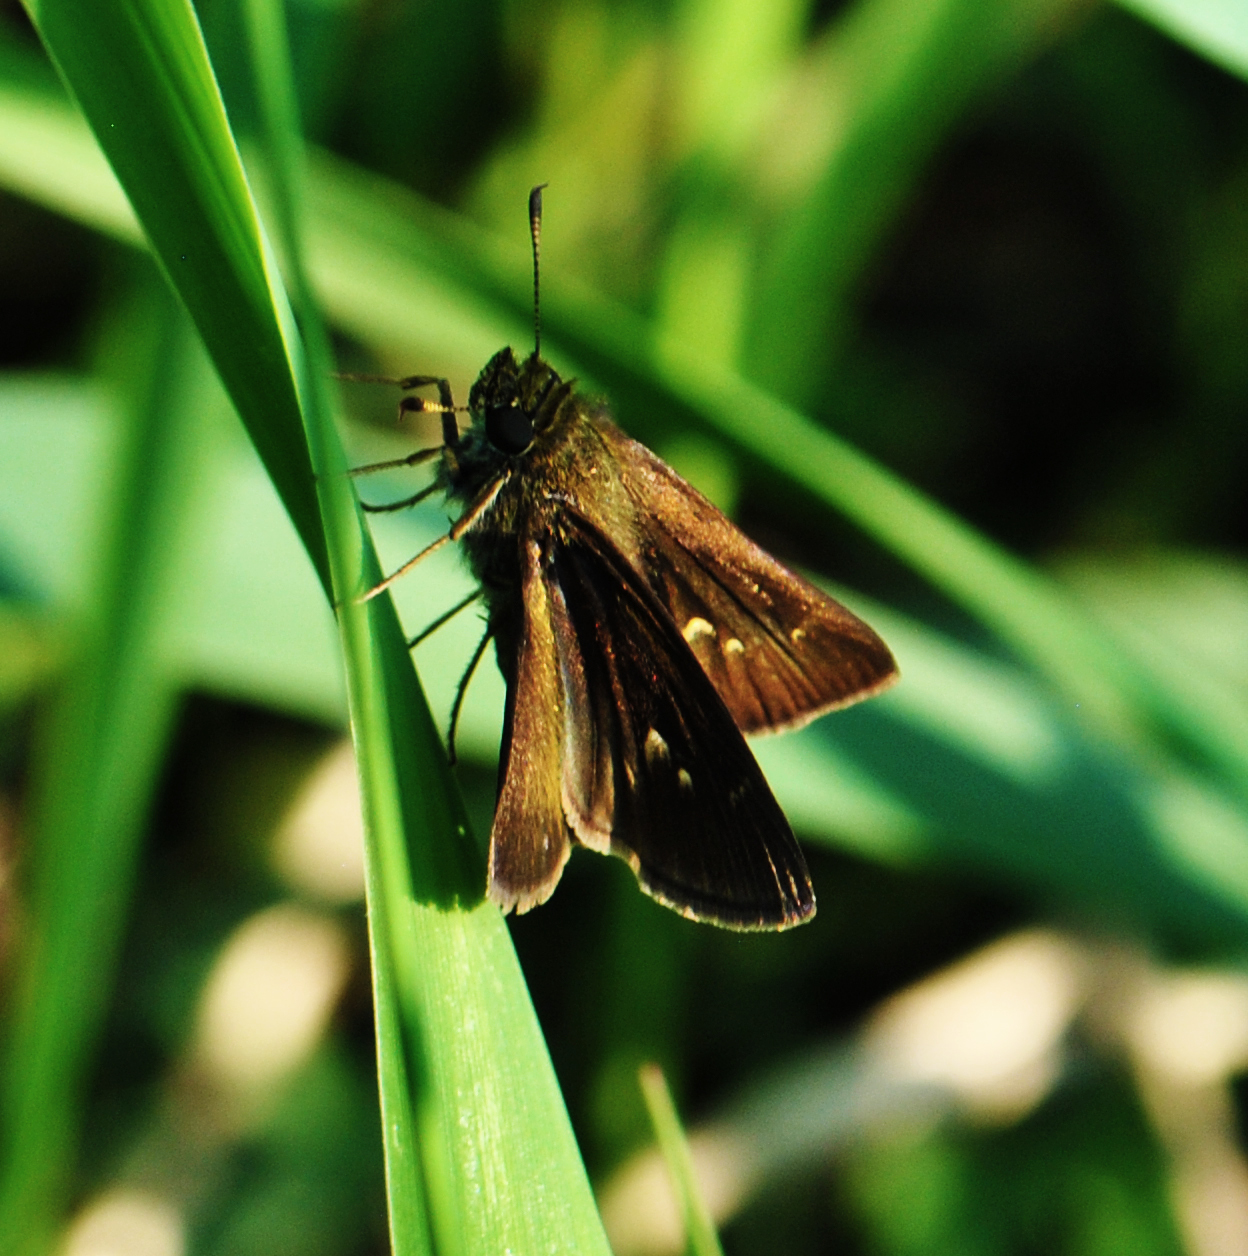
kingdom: Animalia
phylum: Arthropoda
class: Insecta
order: Lepidoptera
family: Hesperiidae
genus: Euphyes
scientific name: Euphyes vestris
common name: Dun skipper
